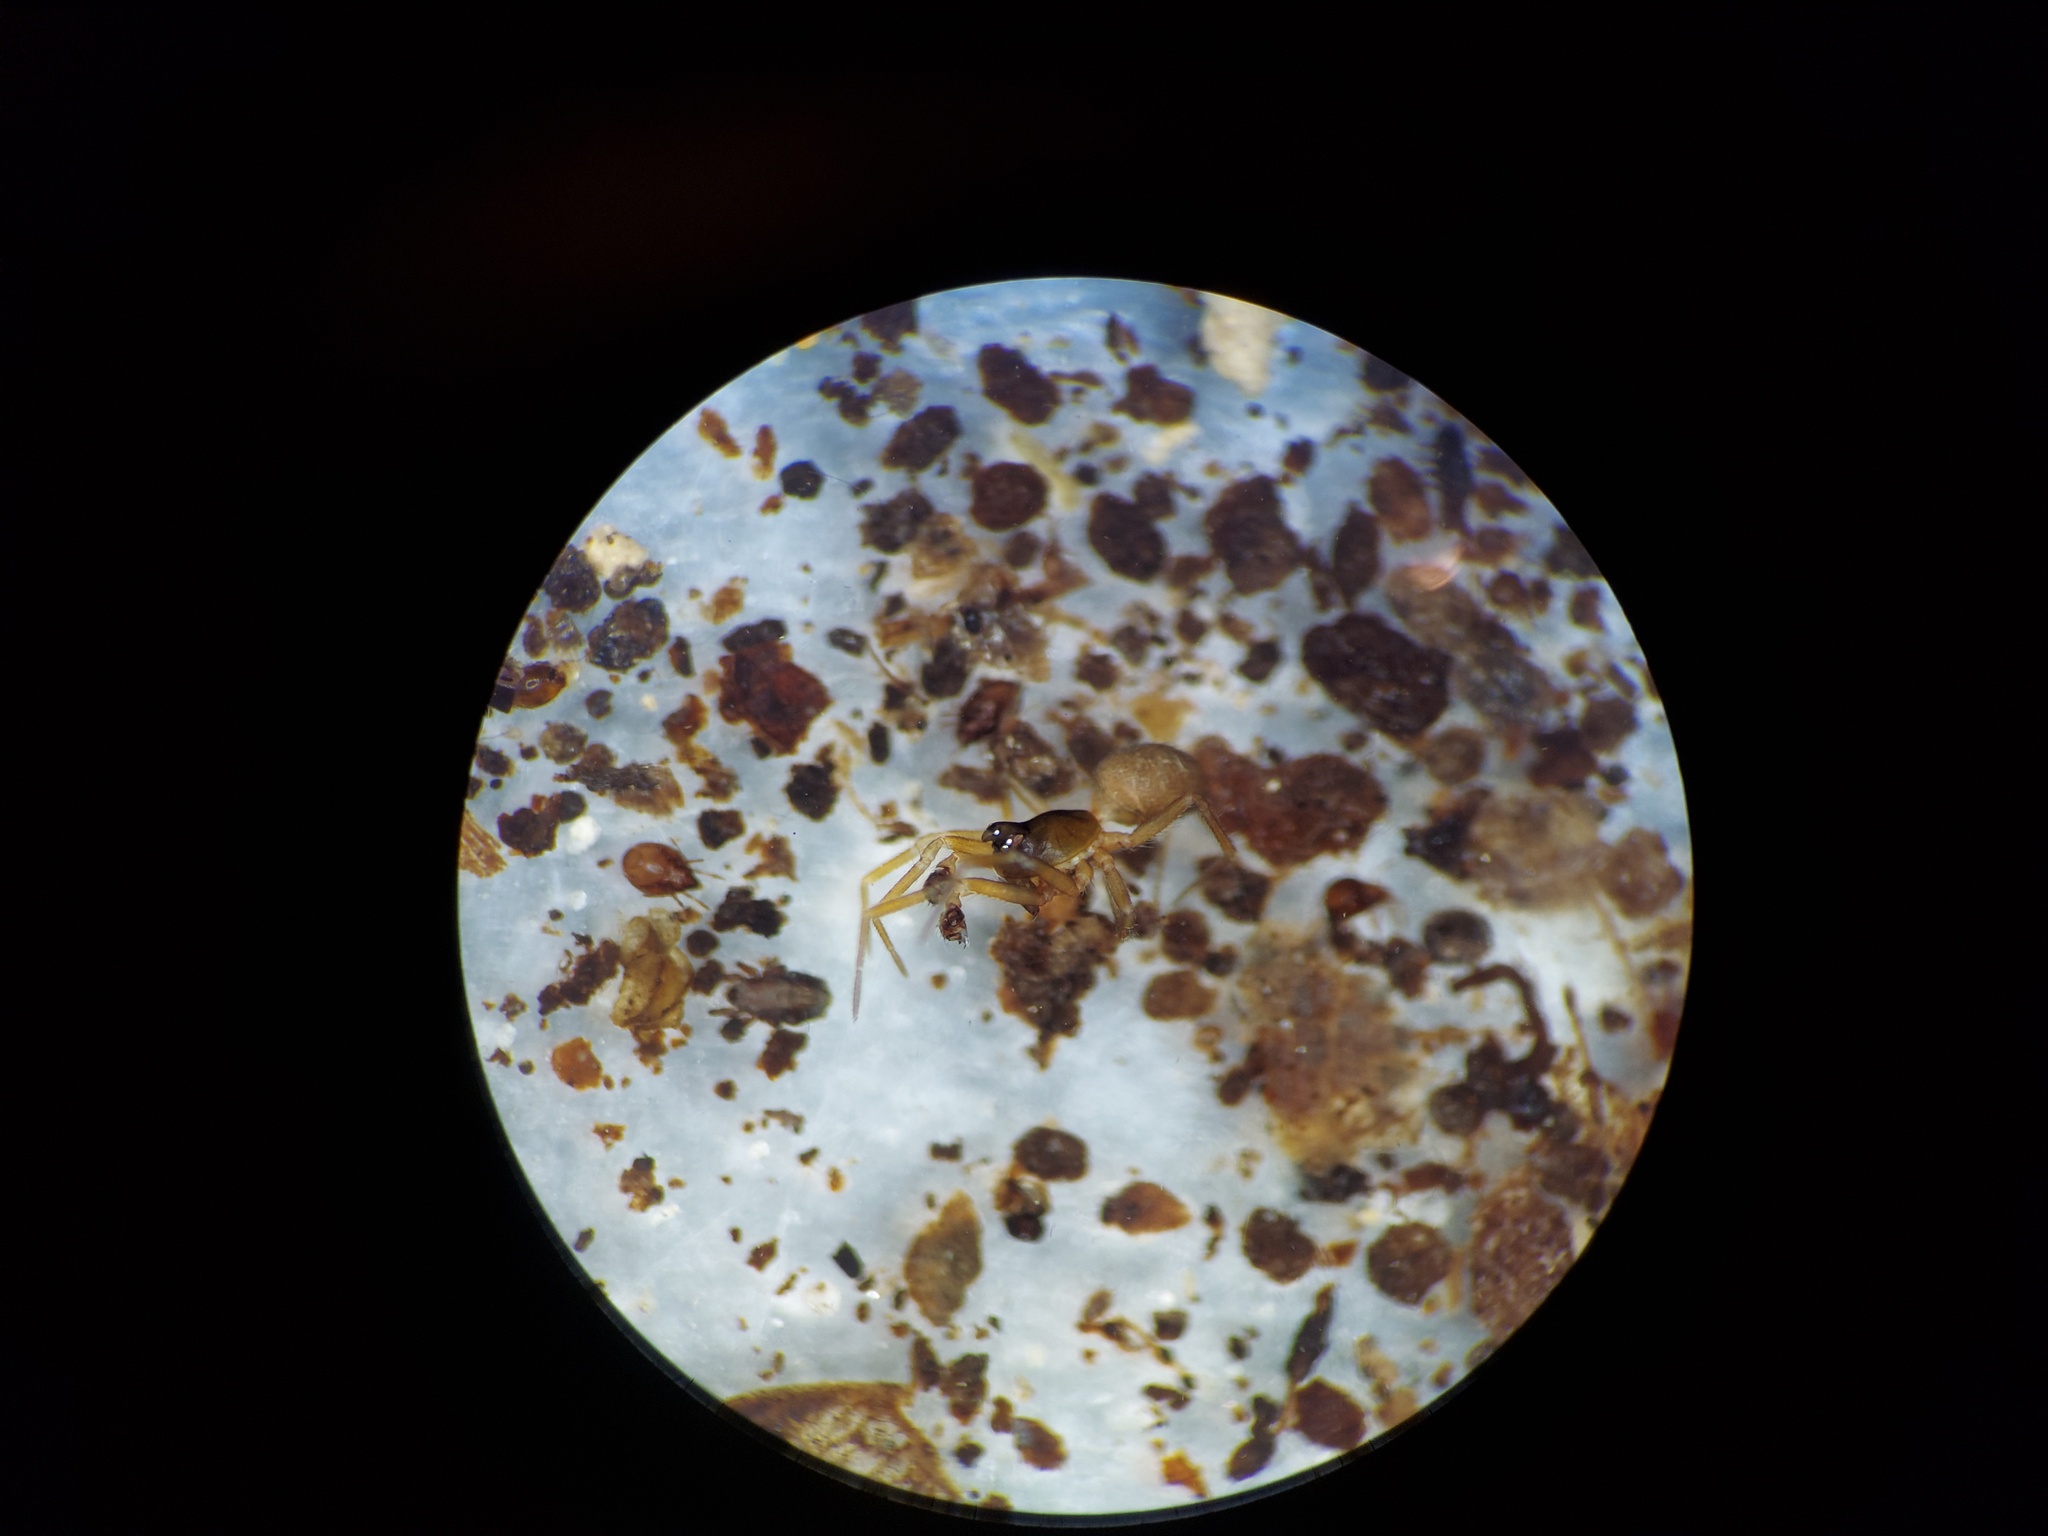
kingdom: Animalia
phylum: Arthropoda
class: Arachnida
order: Araneae
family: Linyphiidae
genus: Origanates
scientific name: Origanates rostratus
